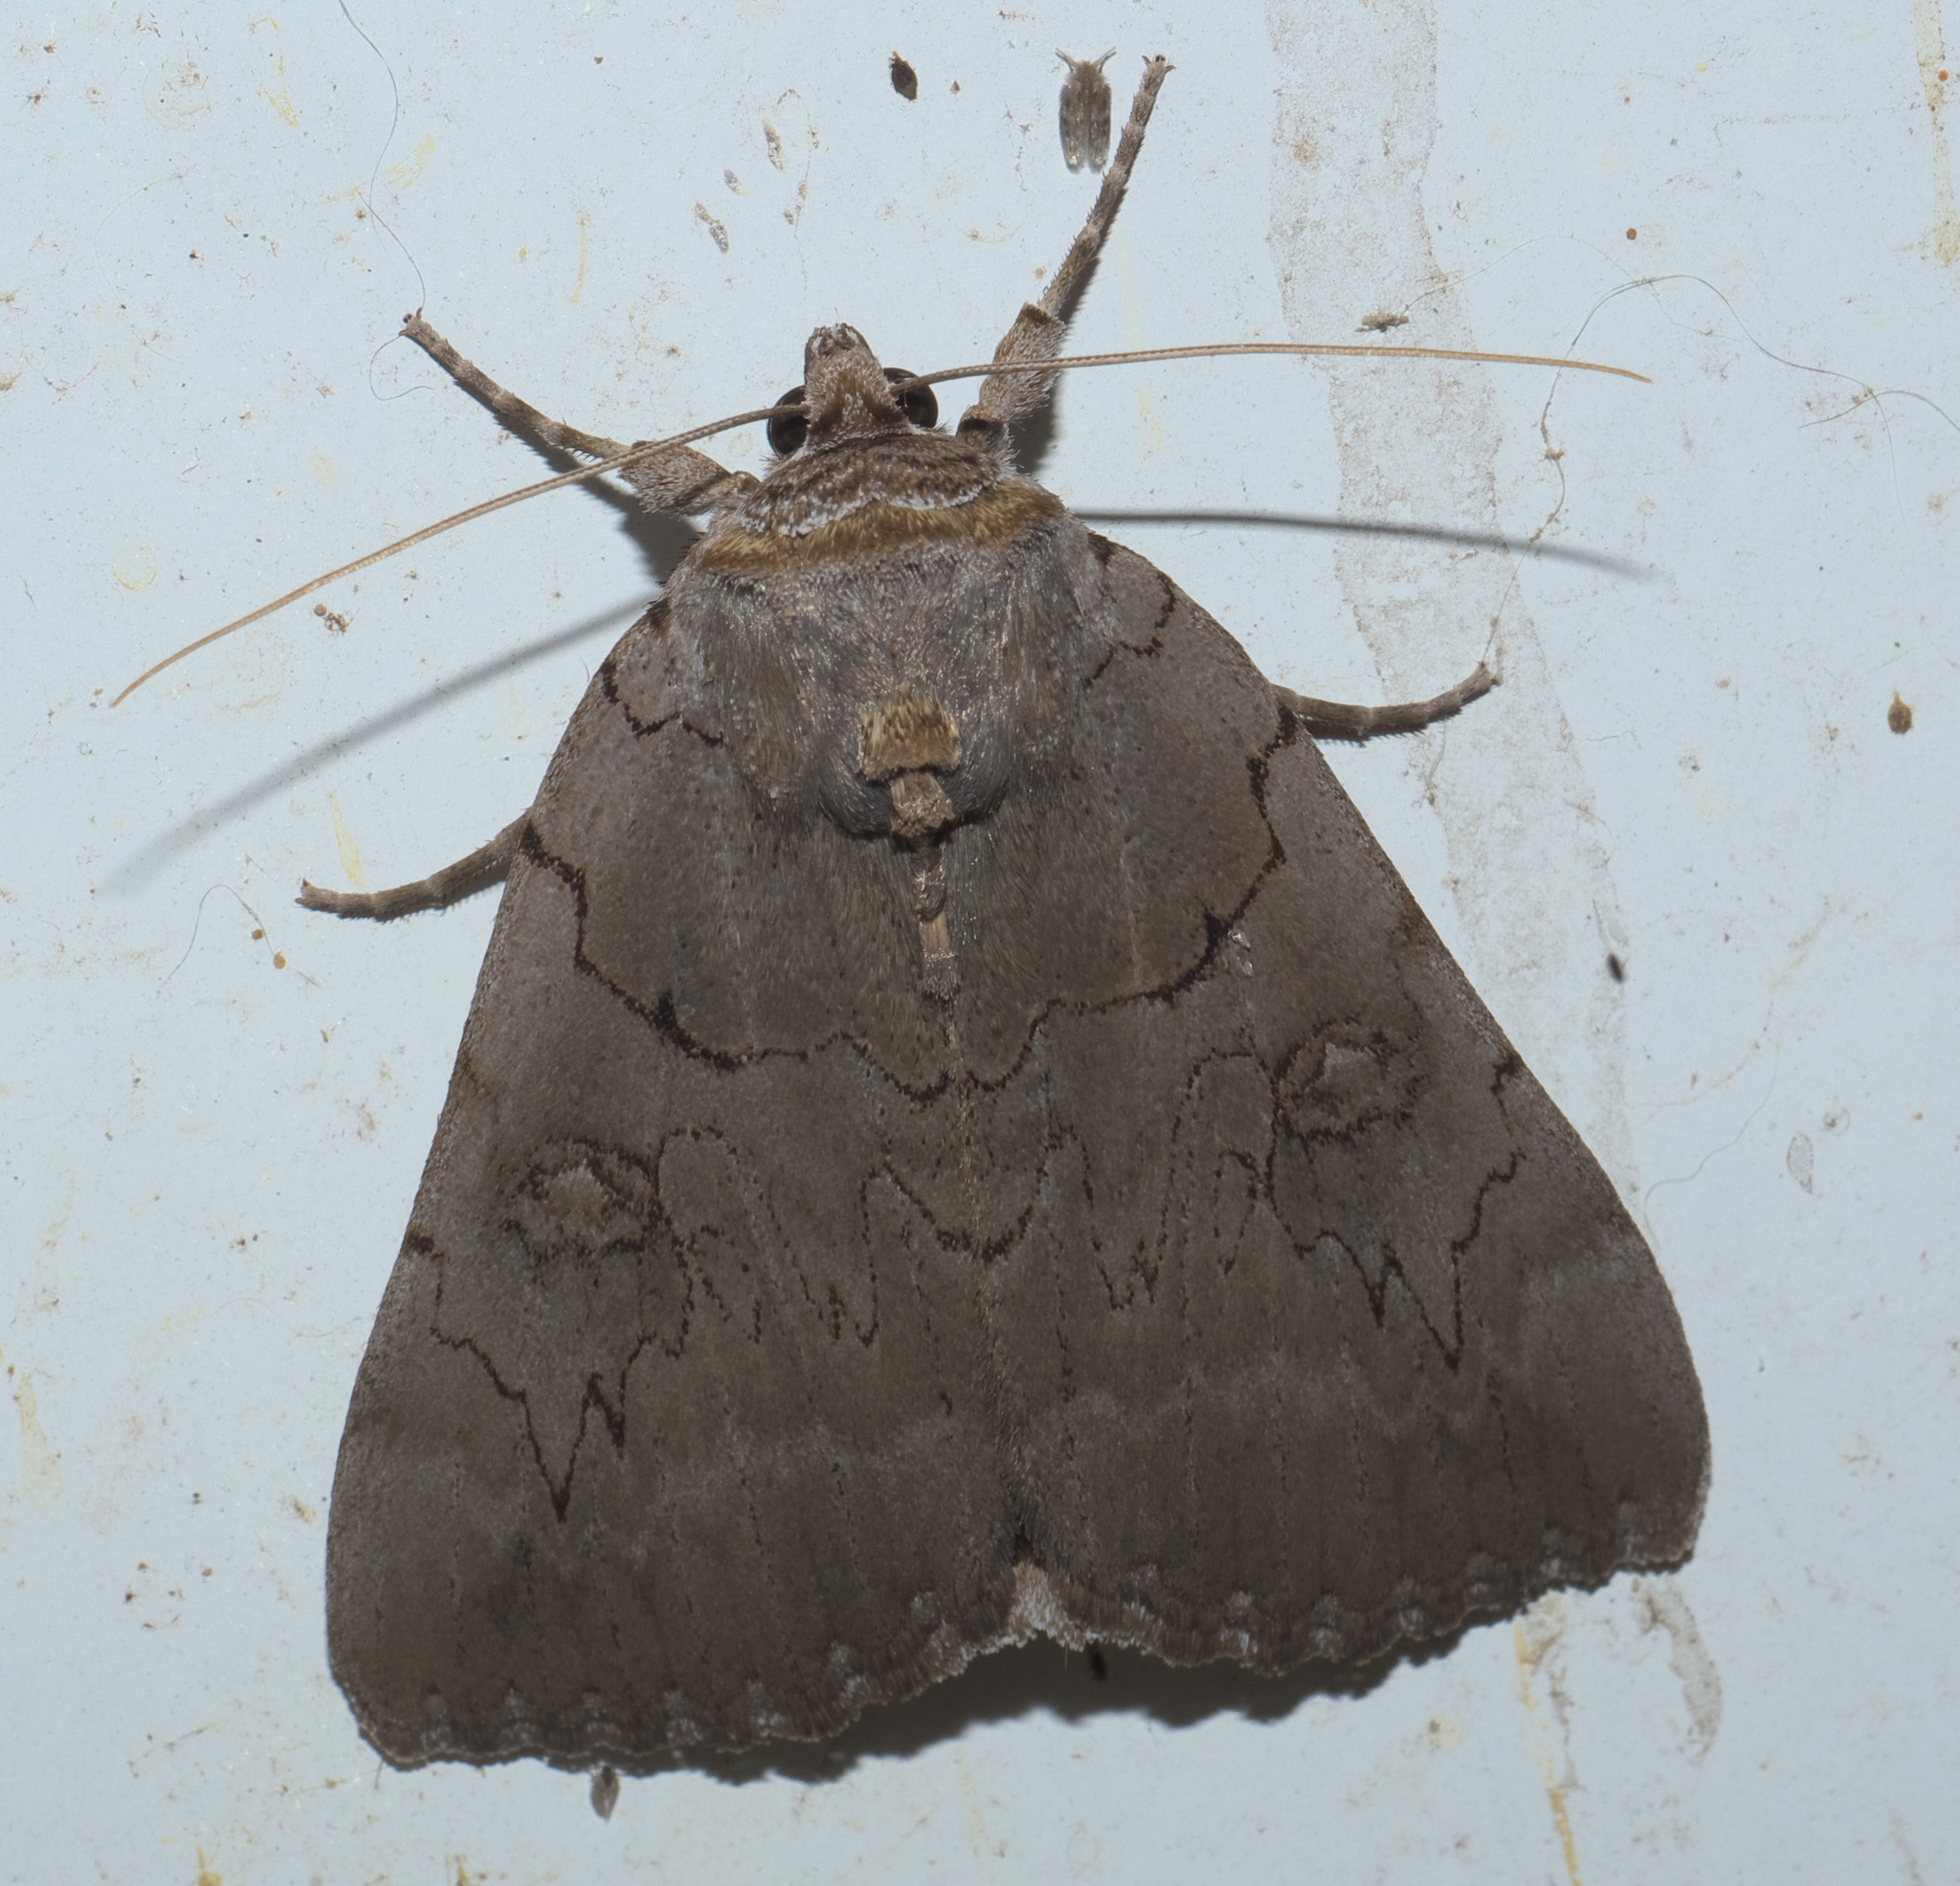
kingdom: Animalia
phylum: Arthropoda
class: Insecta
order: Lepidoptera
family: Erebidae
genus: Catocala
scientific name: Catocala illecta
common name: Magdalen underwing
